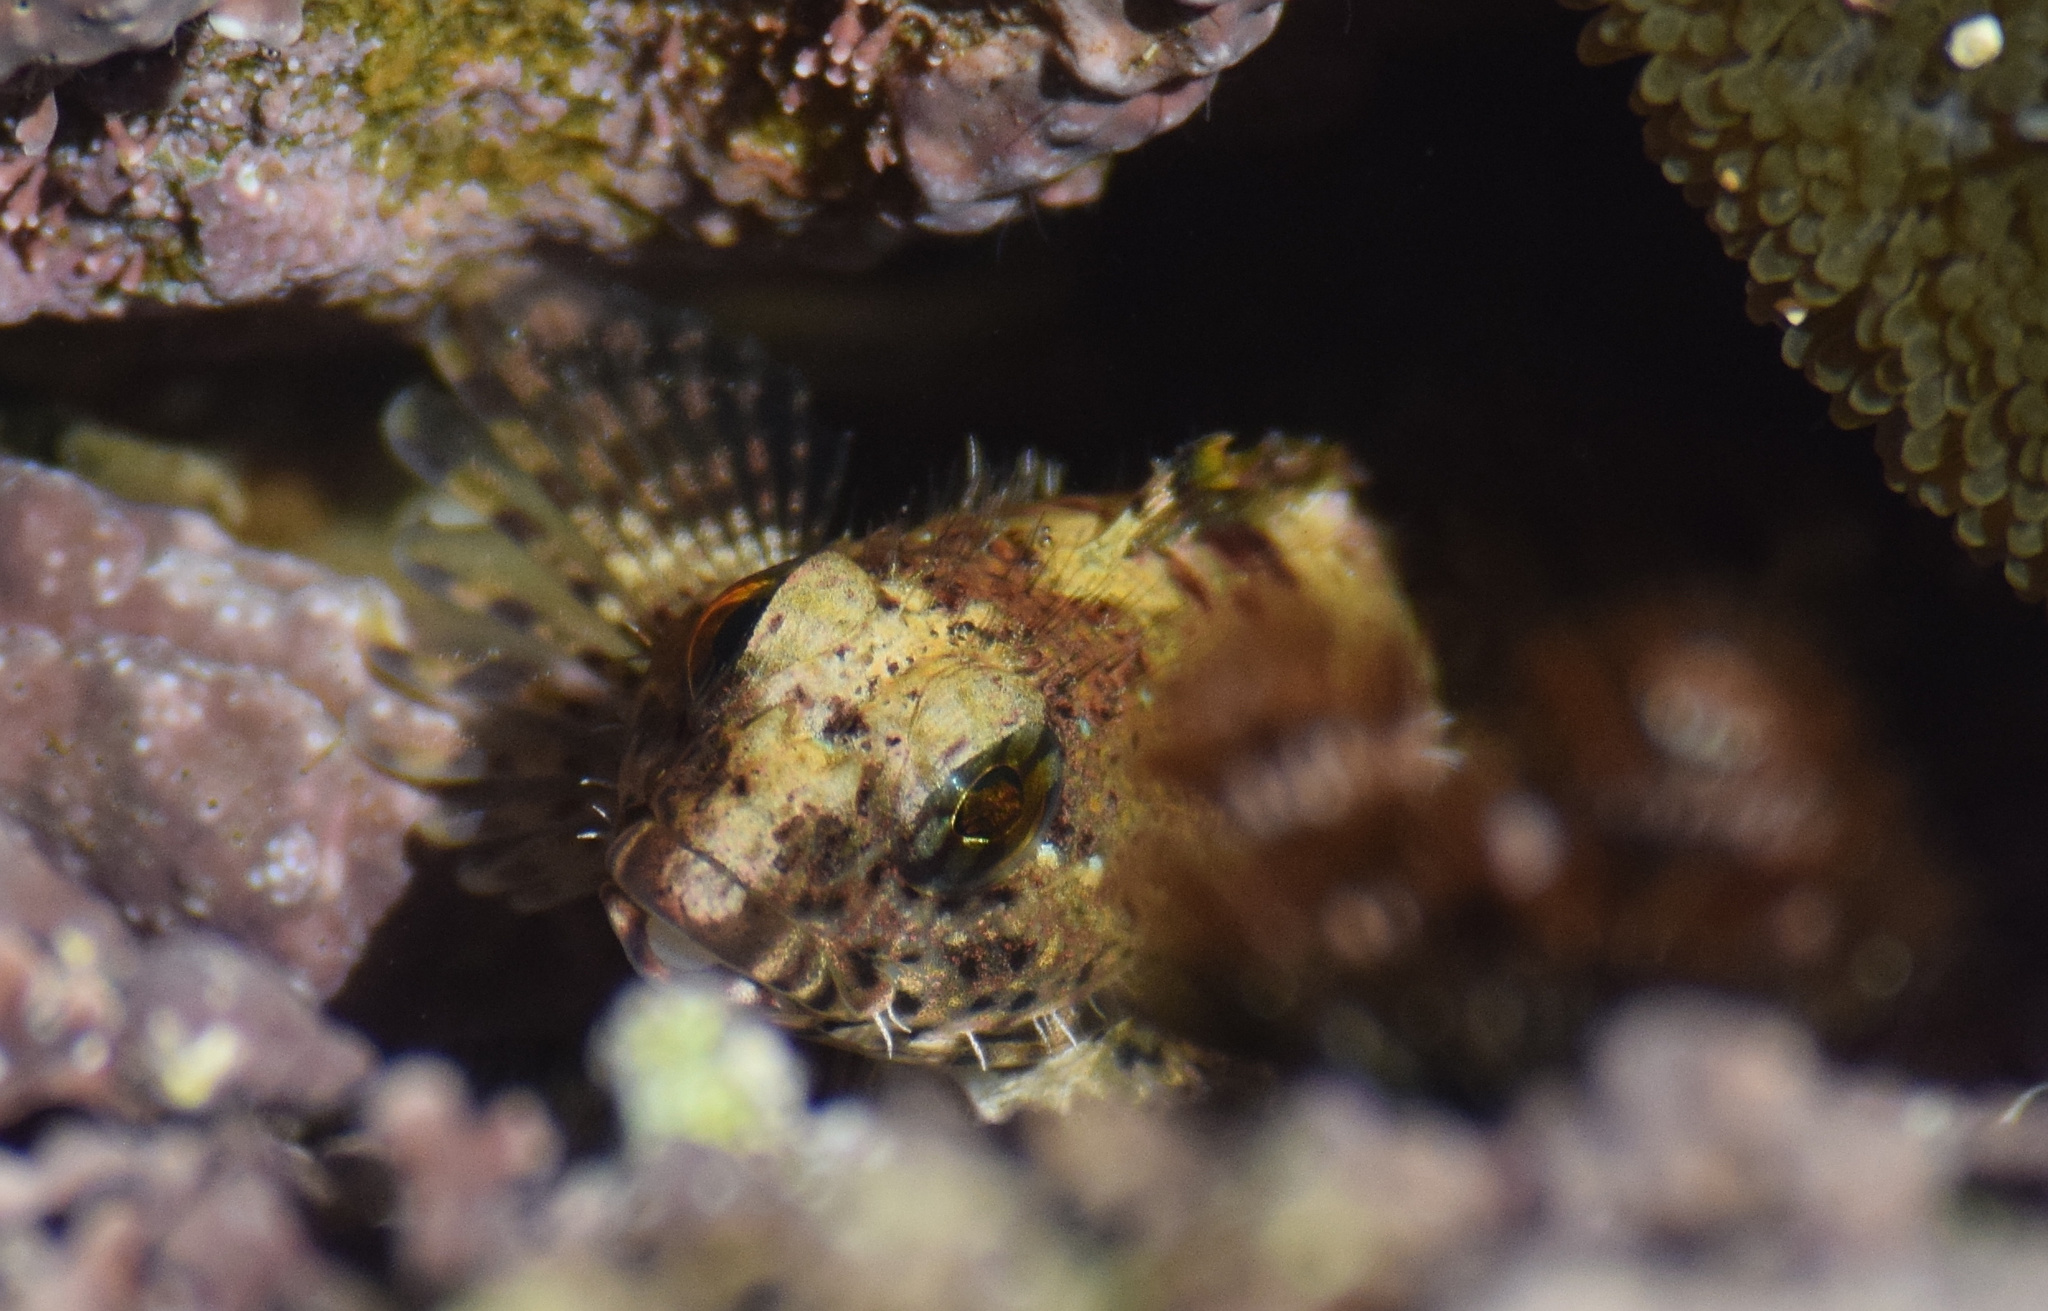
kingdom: Animalia
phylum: Chordata
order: Scorpaeniformes
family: Cottidae
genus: Clinocottus
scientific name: Clinocottus analis
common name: Woolly sculpin
